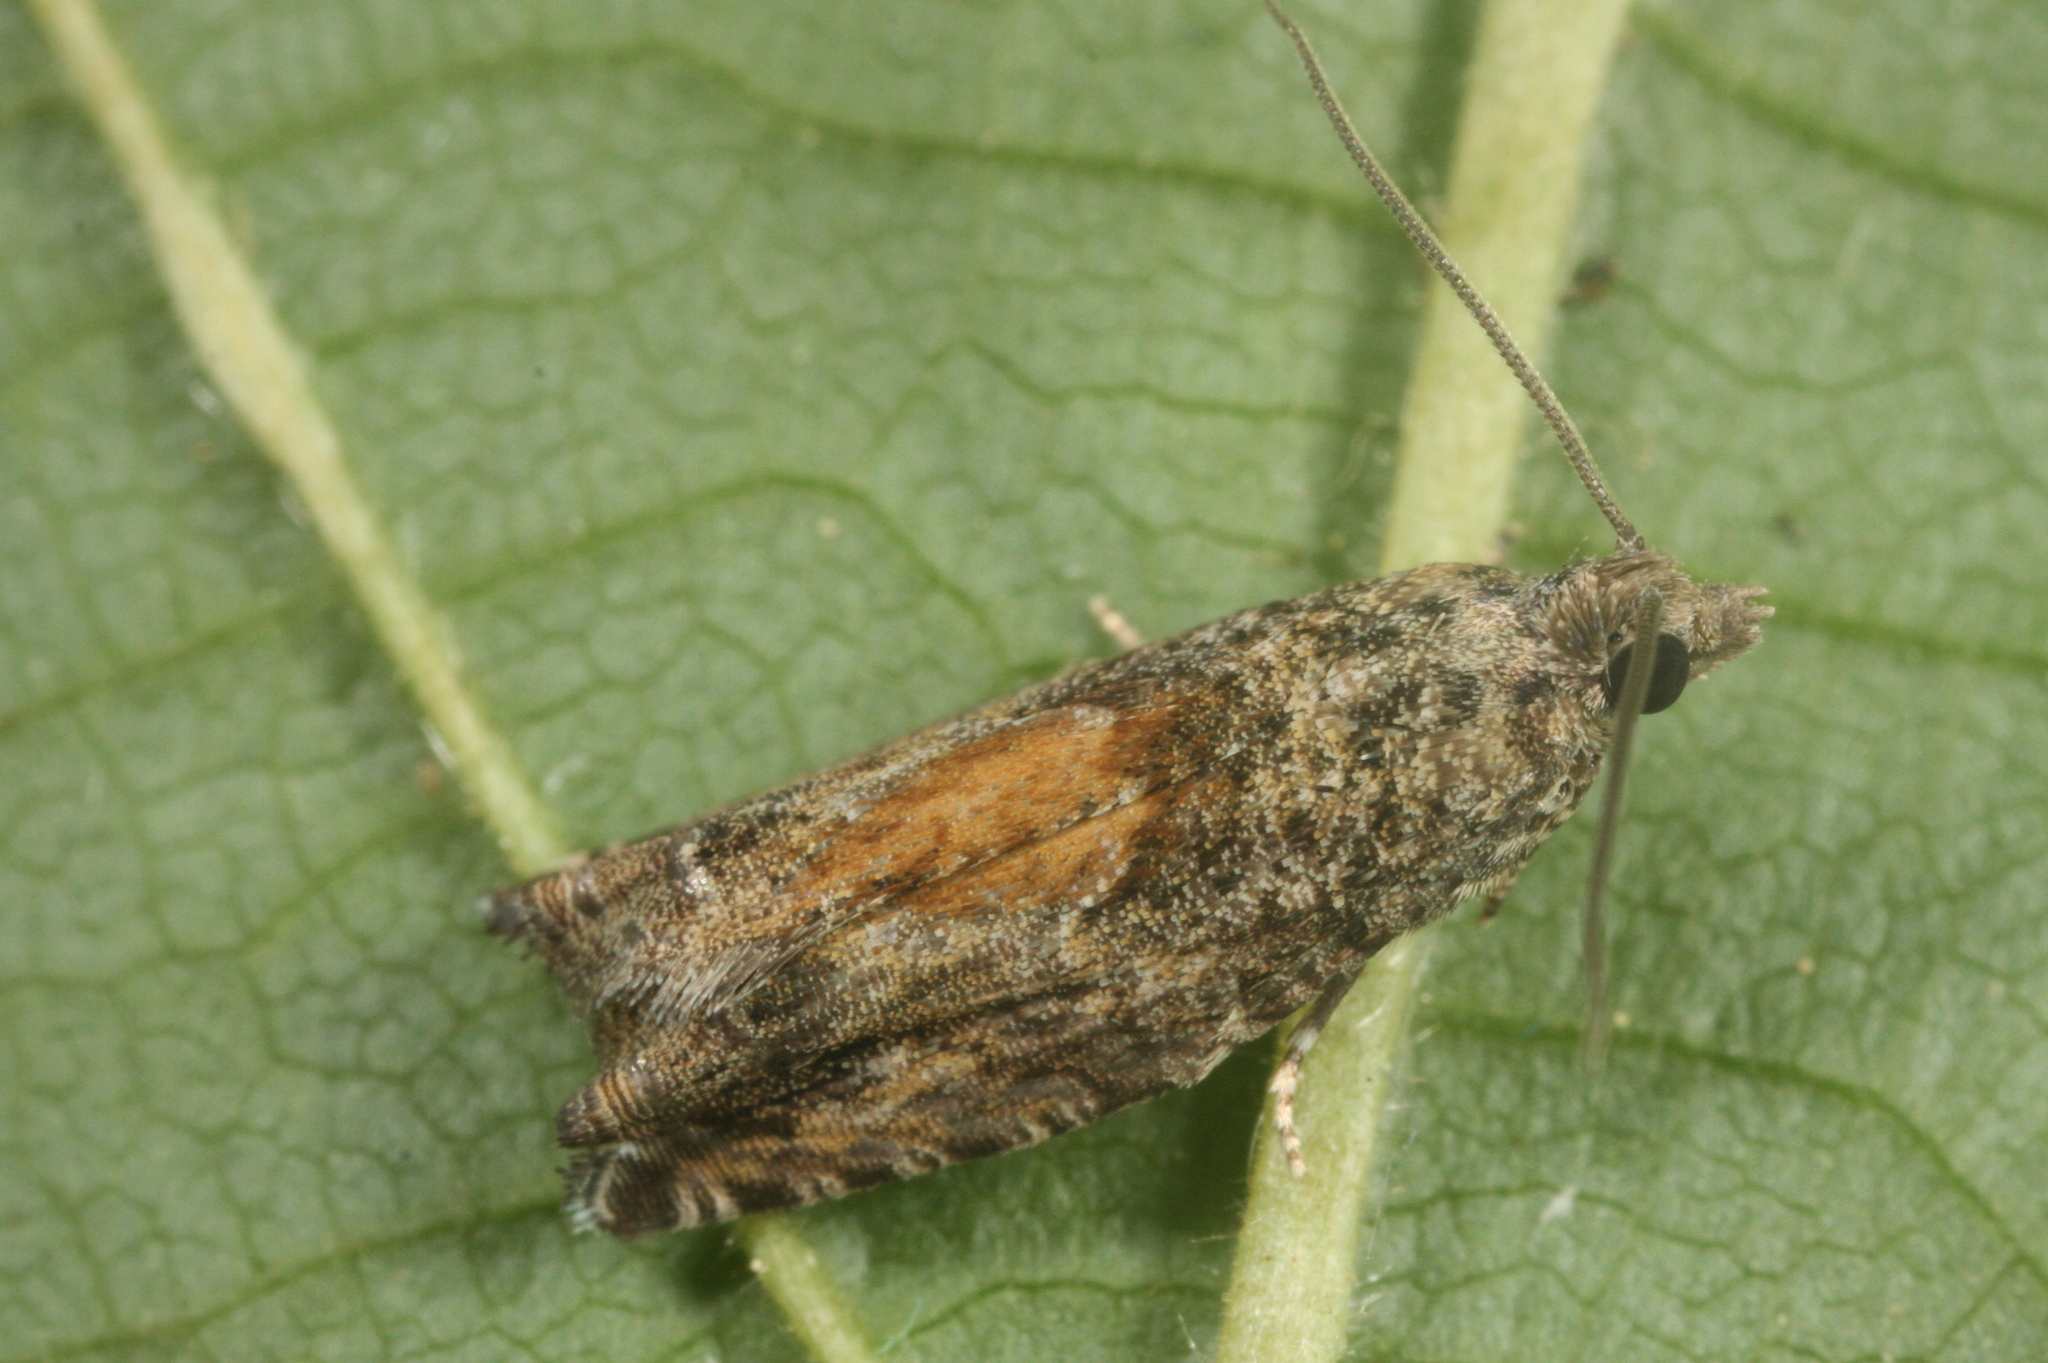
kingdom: Animalia
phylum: Arthropoda
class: Insecta
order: Lepidoptera
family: Tortricidae
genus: Epinotia
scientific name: Epinotia nisella
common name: Grey poplar bell
